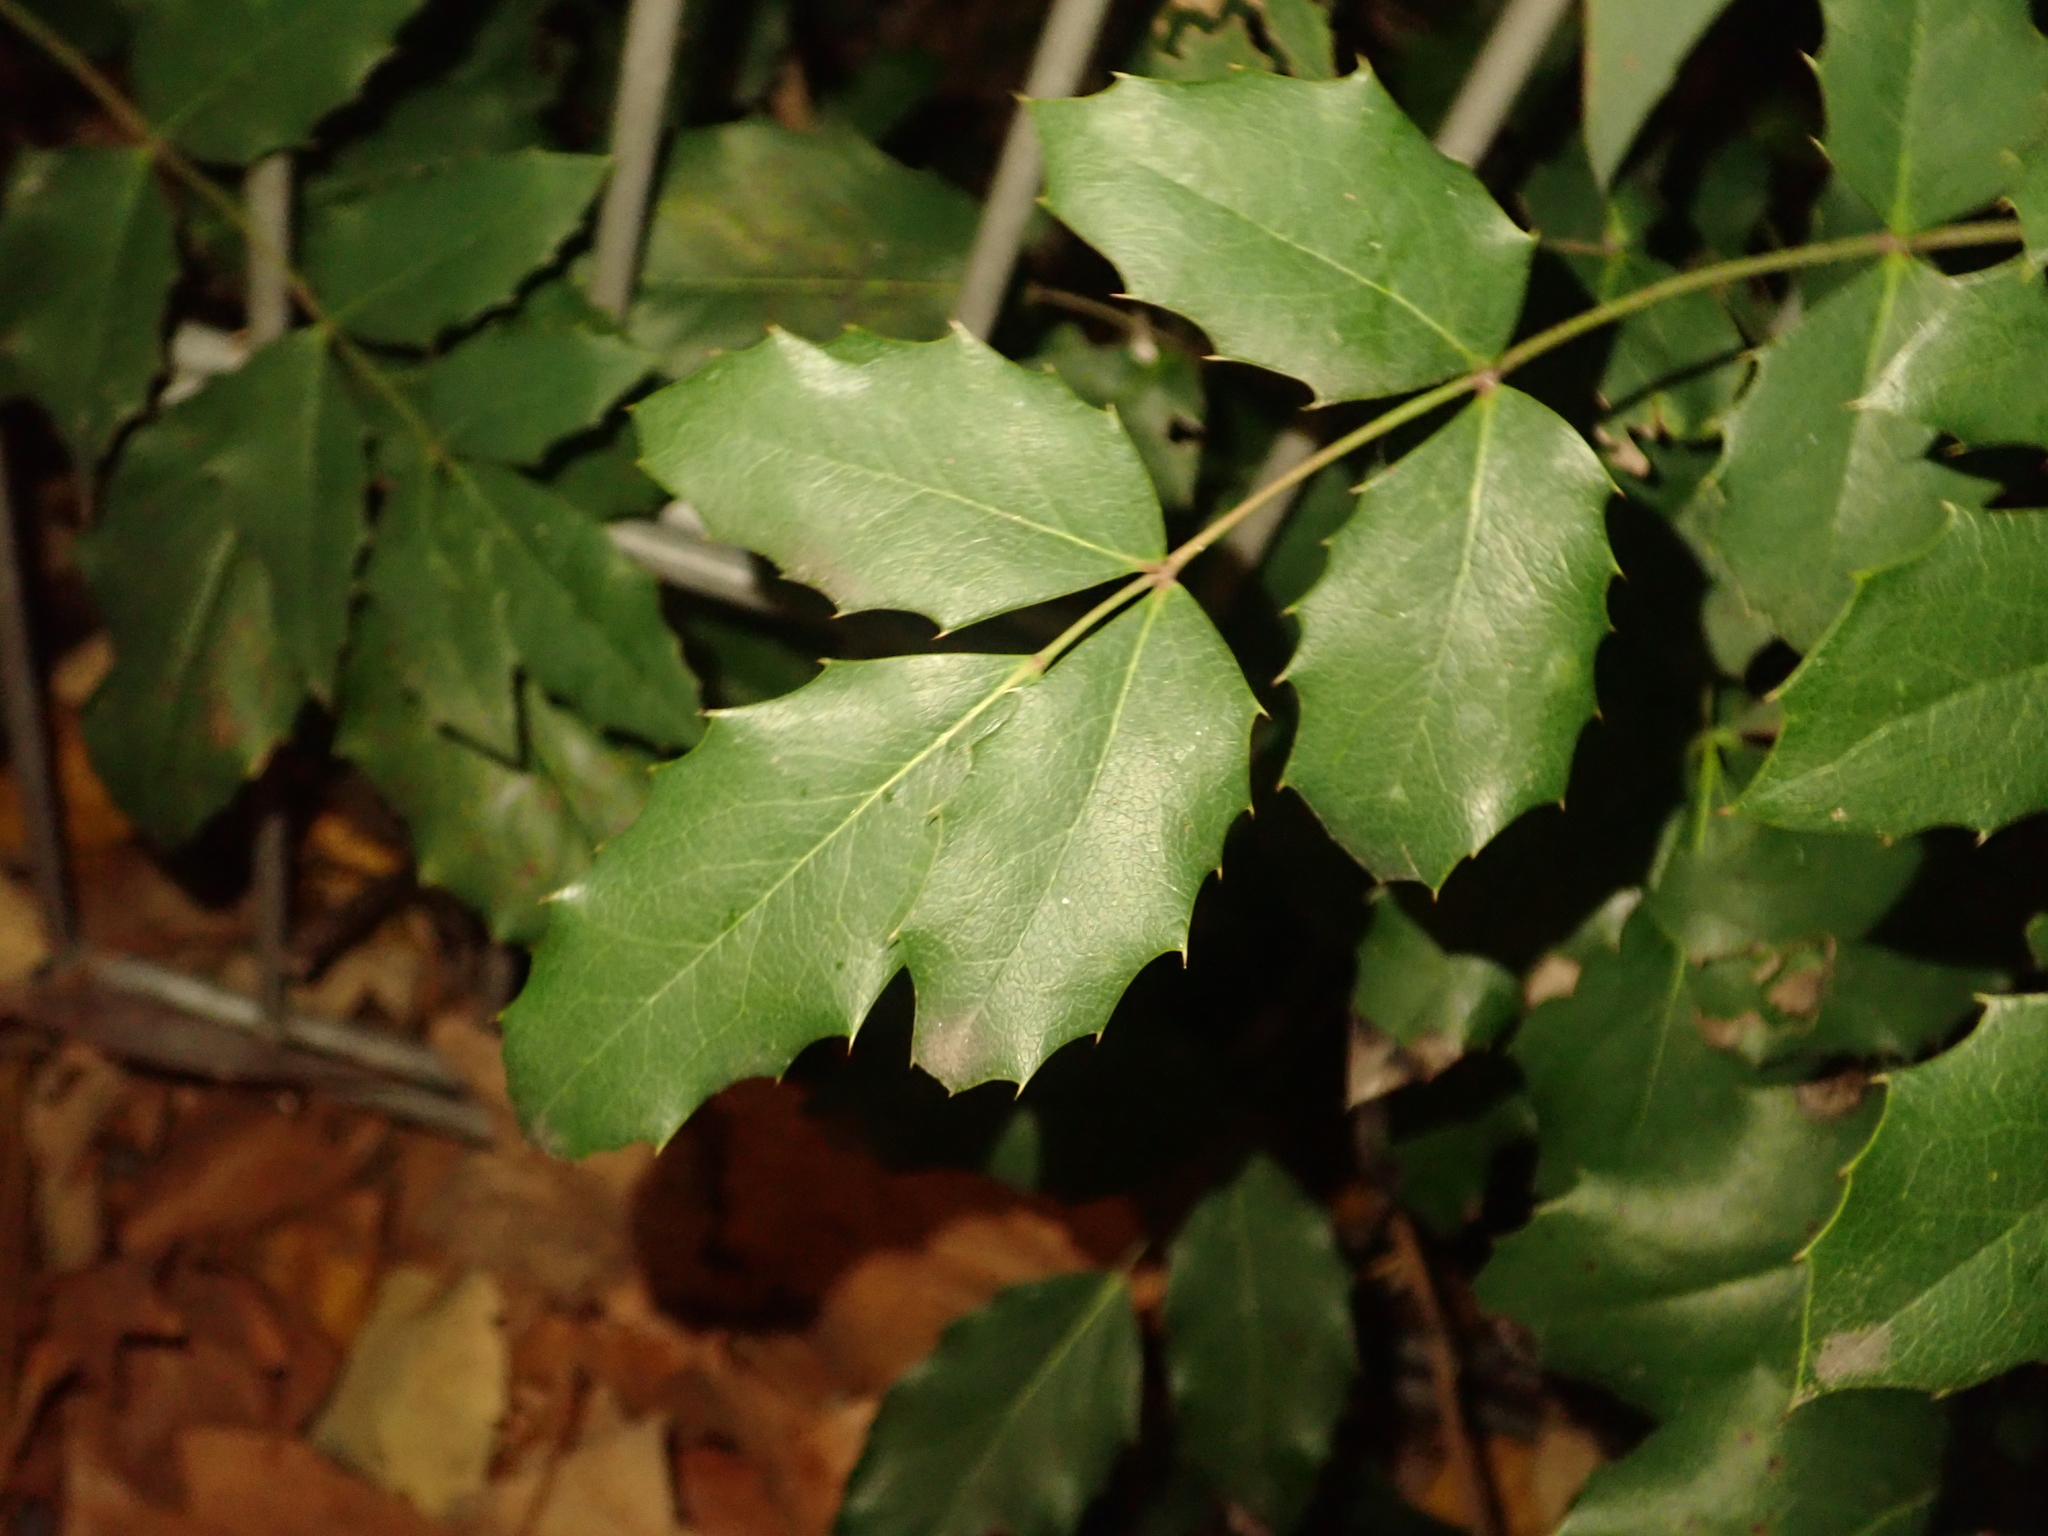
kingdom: Plantae
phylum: Tracheophyta
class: Magnoliopsida
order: Ranunculales
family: Berberidaceae
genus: Mahonia
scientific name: Mahonia aquifolium
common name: Oregon-grape
